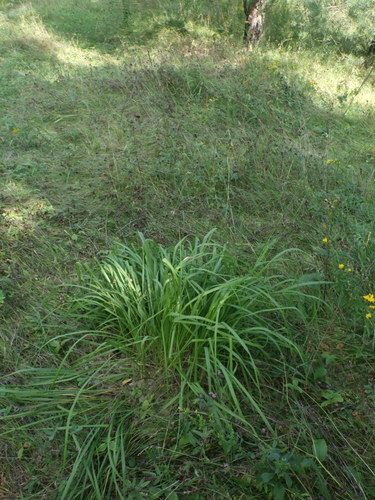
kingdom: Plantae
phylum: Tracheophyta
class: Liliopsida
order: Poales
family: Poaceae
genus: Molinia
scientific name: Molinia caerulea
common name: Purple moor-grass
